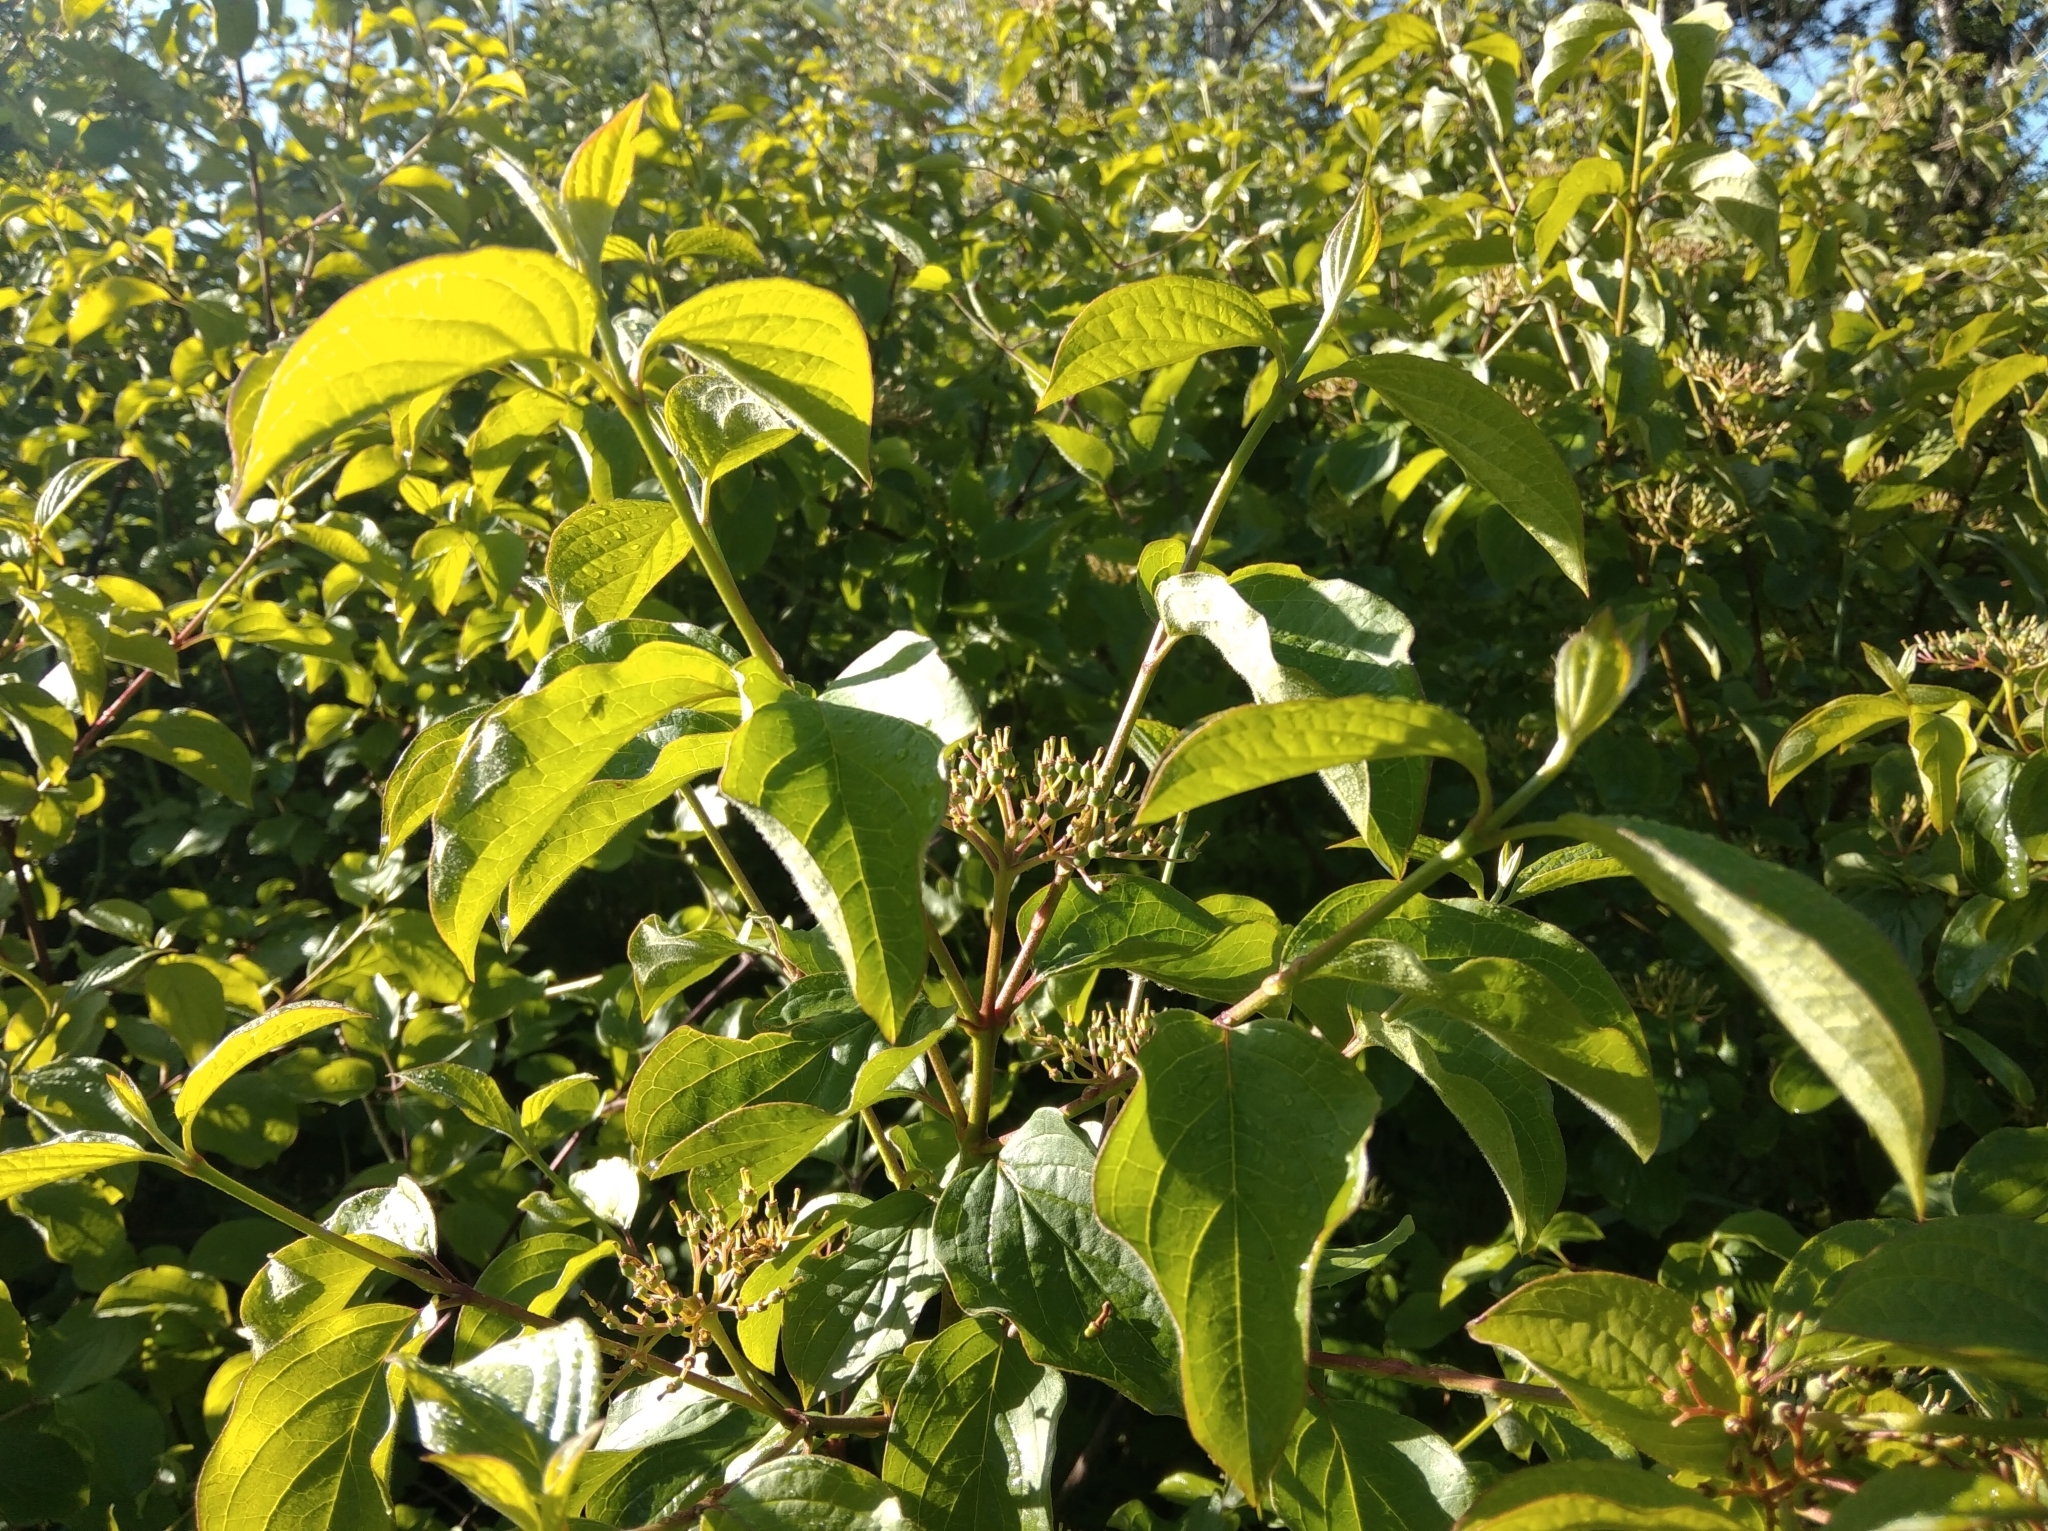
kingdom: Plantae
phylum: Tracheophyta
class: Magnoliopsida
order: Cornales
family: Cornaceae
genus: Cornus
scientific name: Cornus sanguinea
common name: Dogwood
